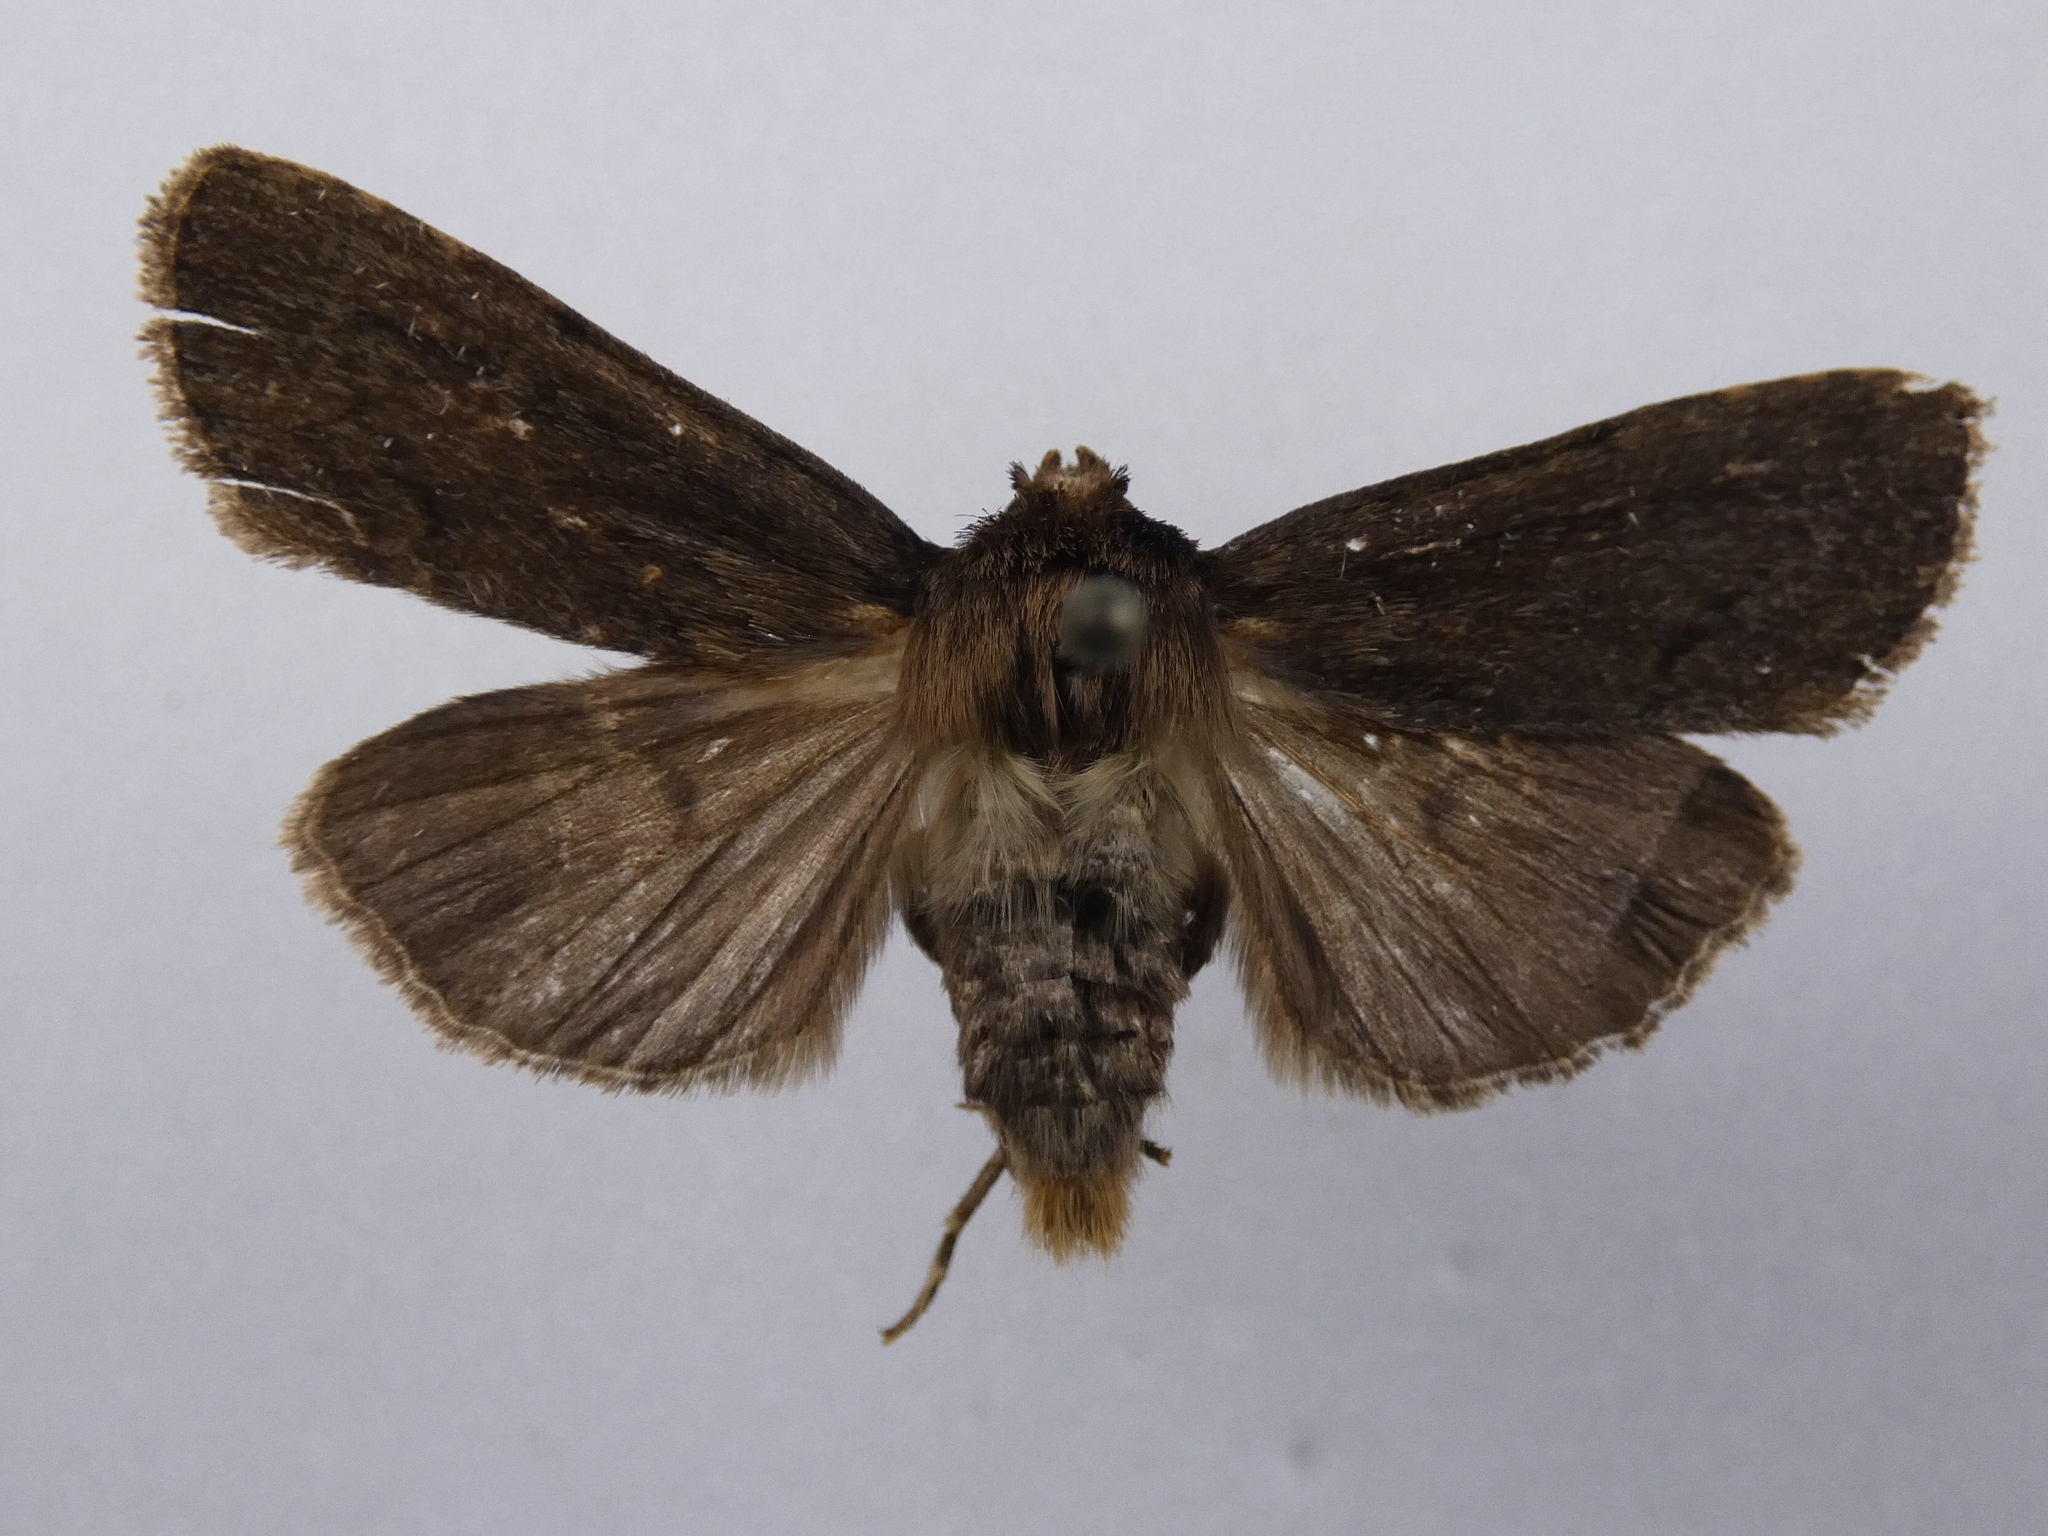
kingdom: Animalia
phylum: Arthropoda
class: Insecta
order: Lepidoptera
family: Noctuidae
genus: Bityla
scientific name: Bityla defigurata
